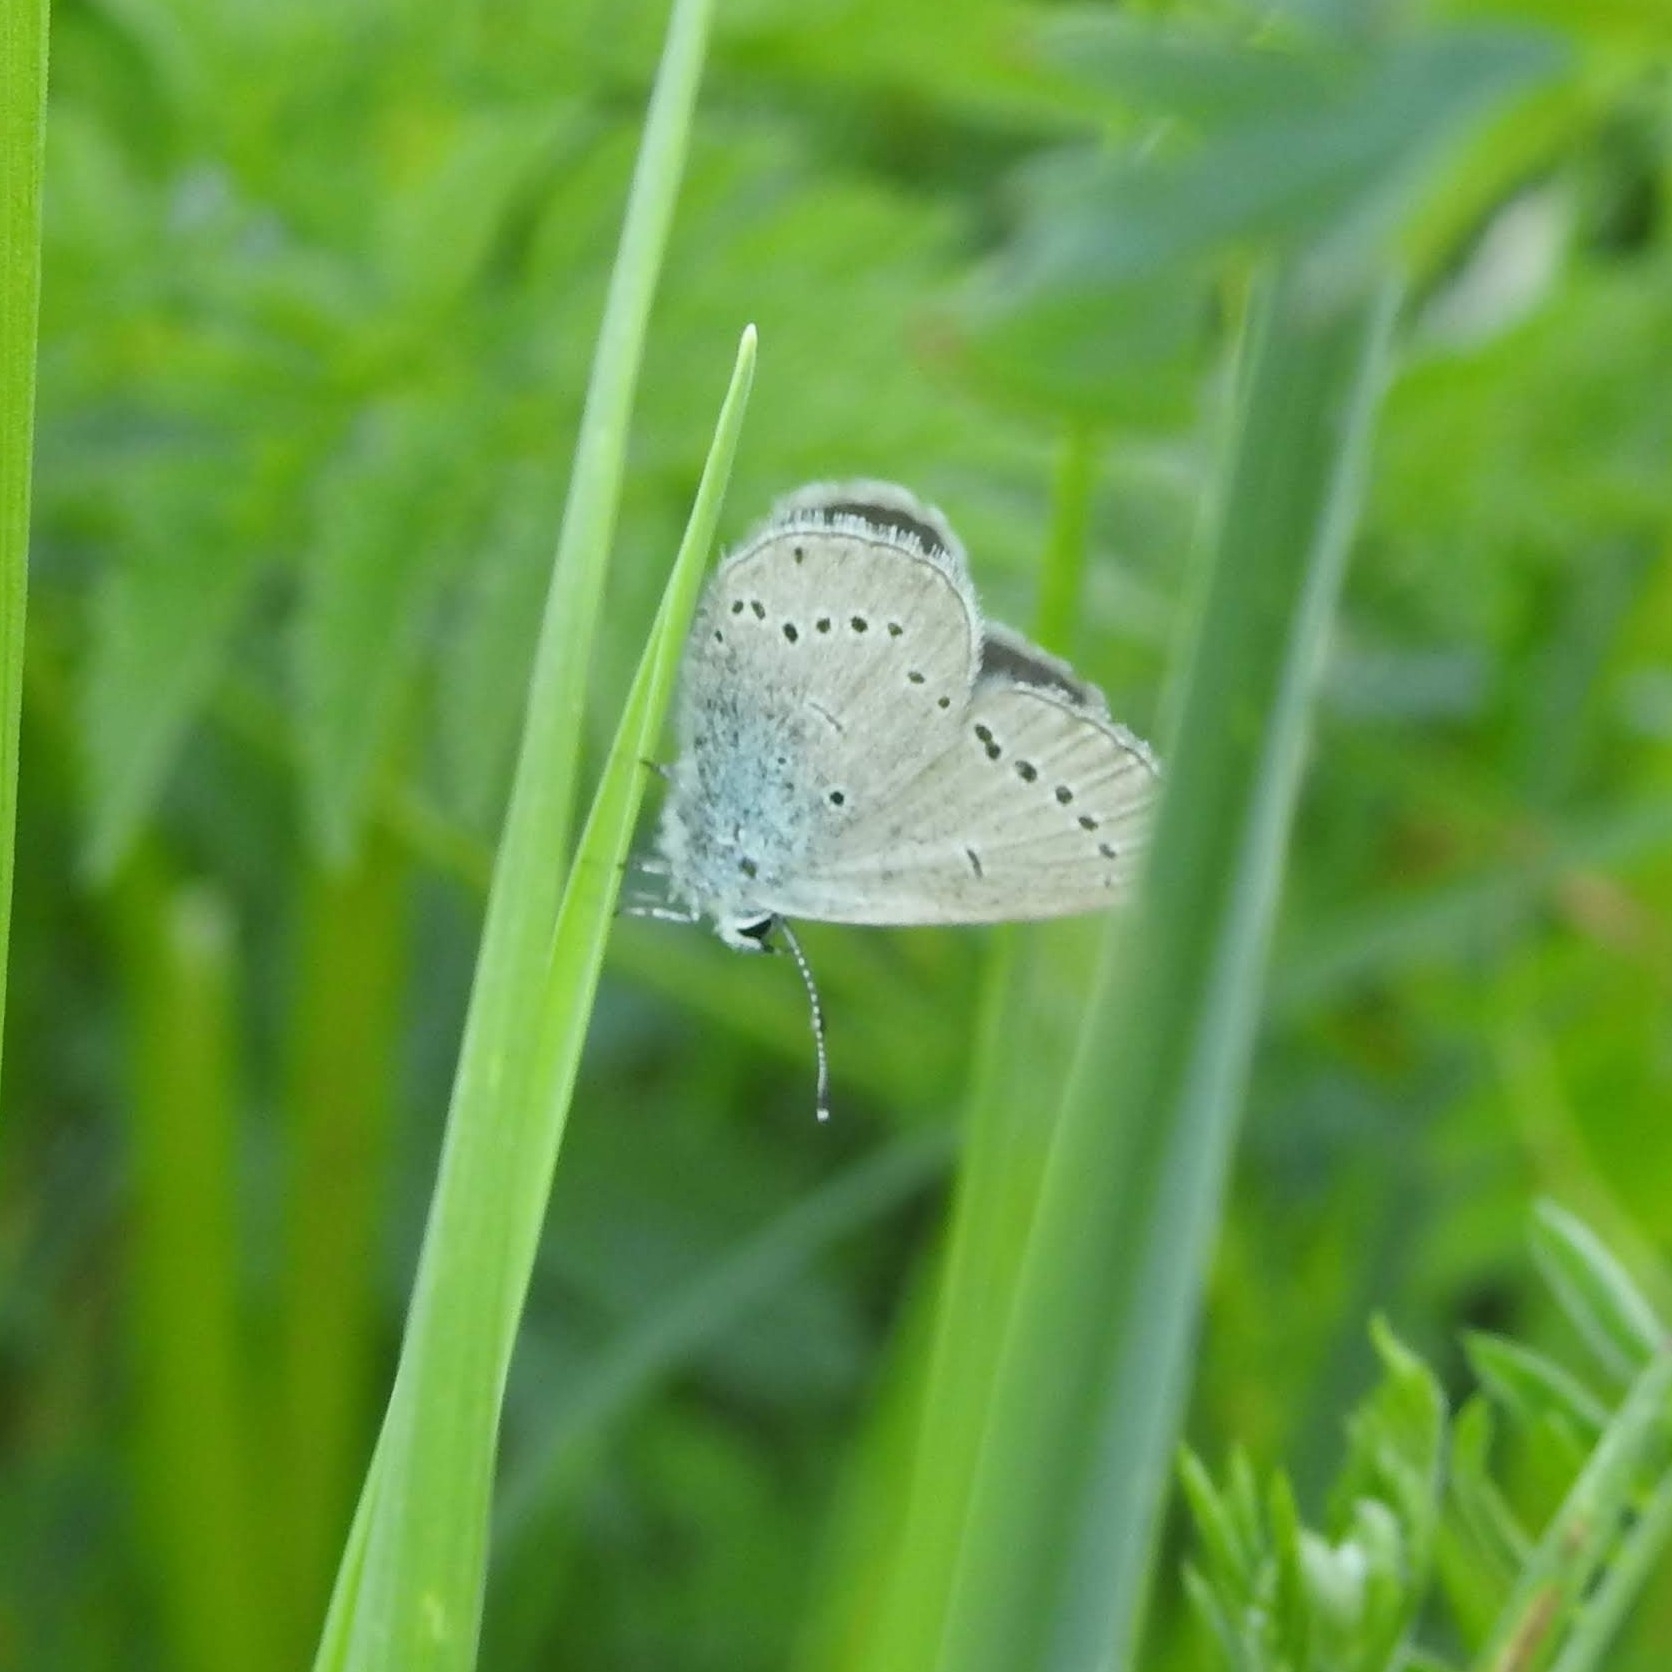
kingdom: Animalia
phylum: Arthropoda
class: Insecta
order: Lepidoptera
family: Lycaenidae
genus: Cupido
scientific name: Cupido minimus
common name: Small blue
